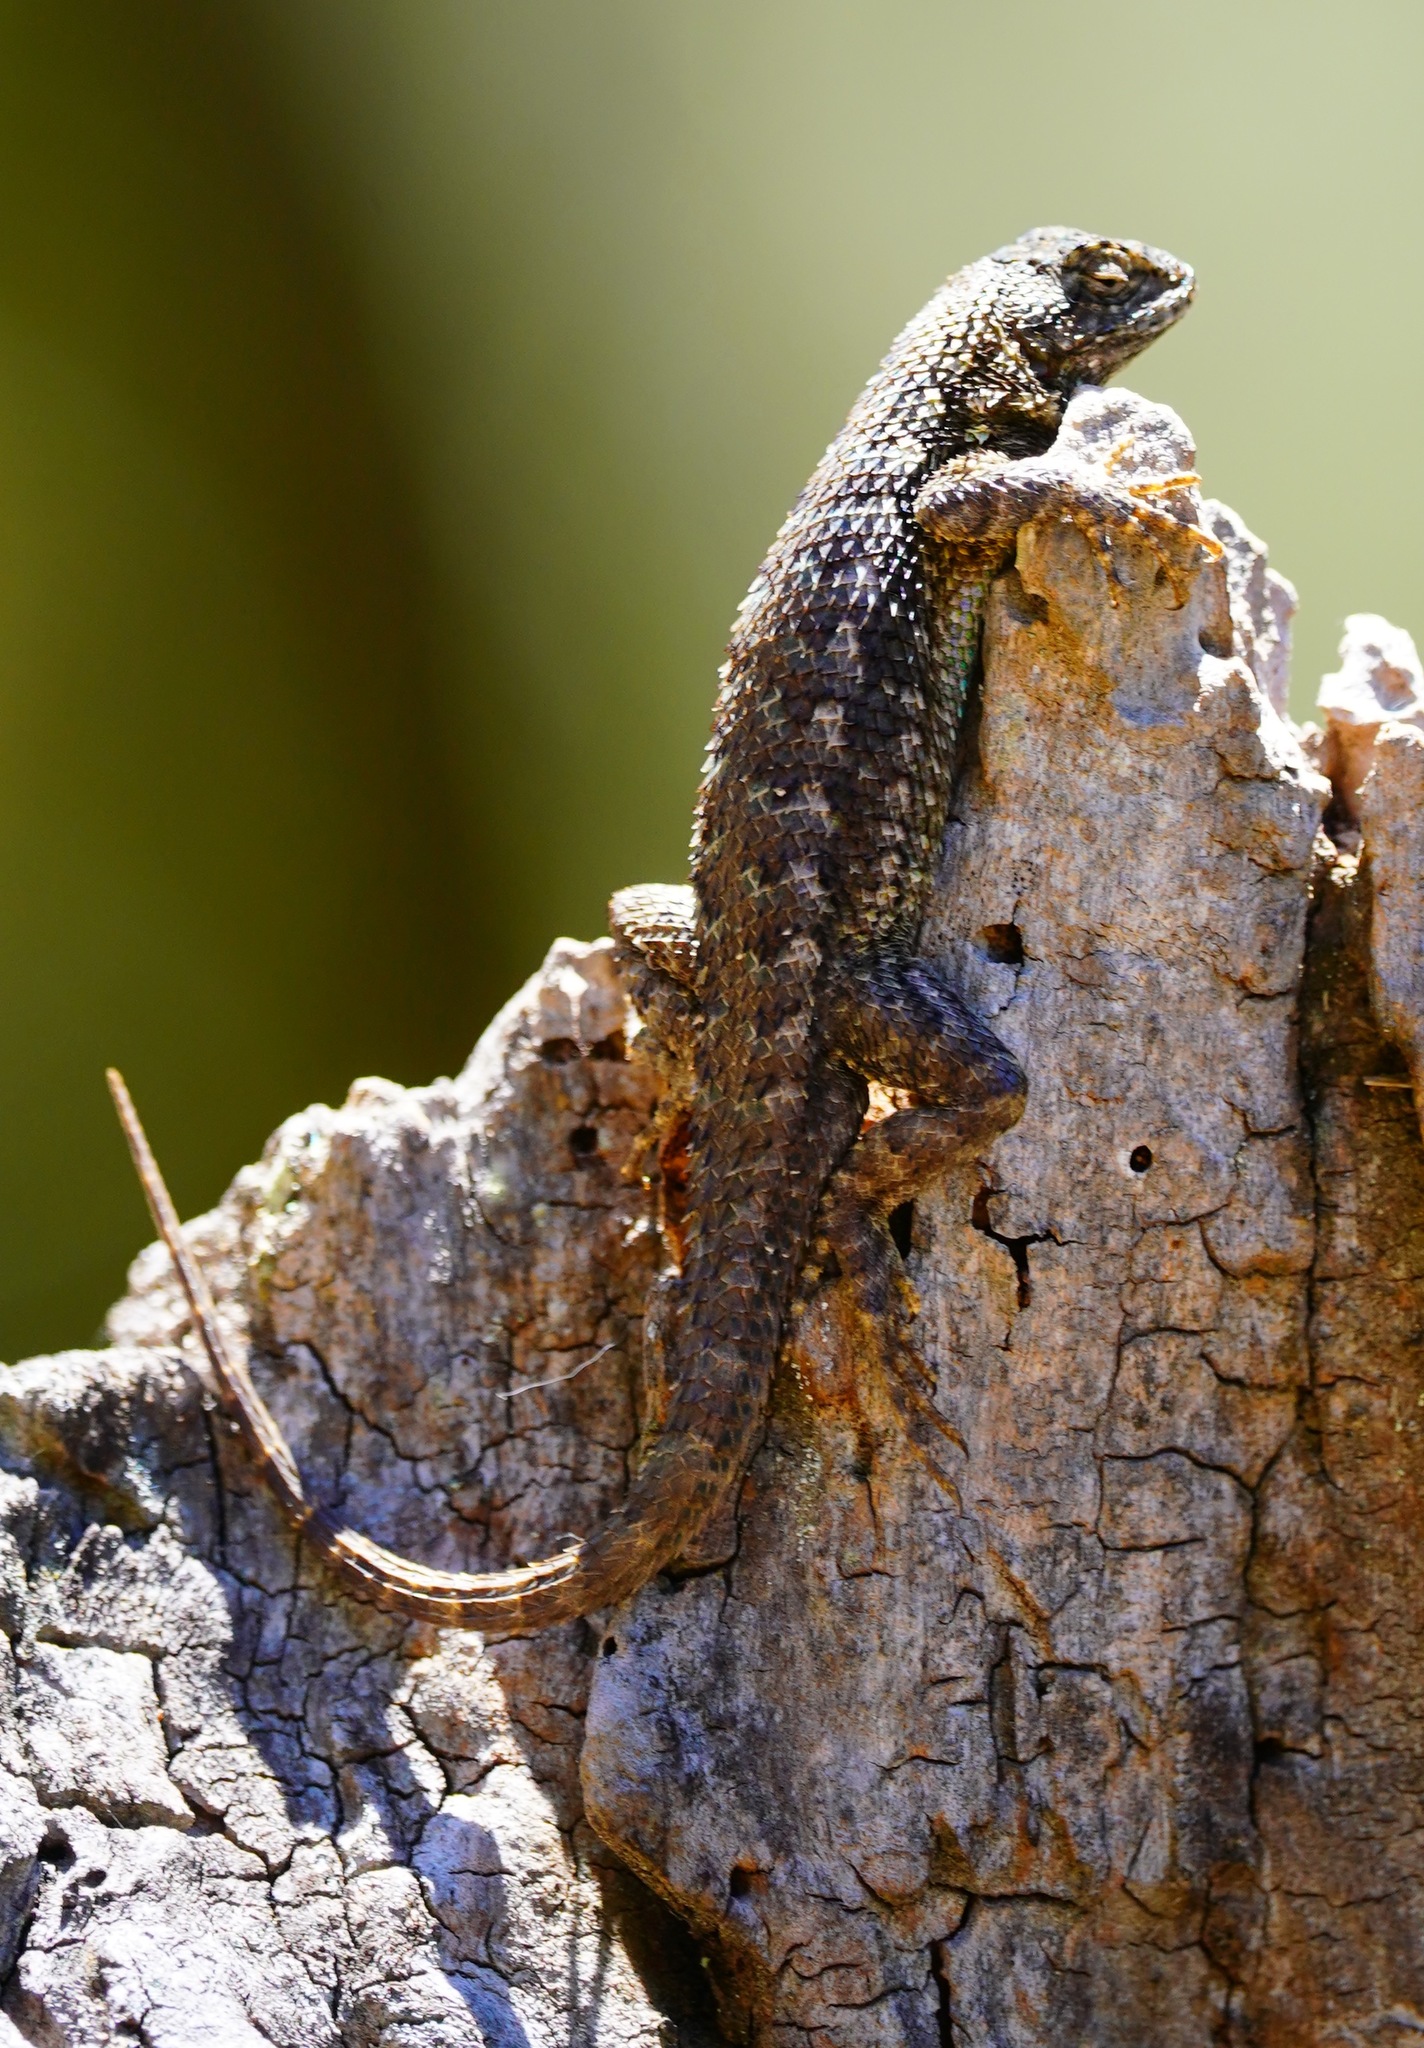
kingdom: Animalia
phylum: Chordata
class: Squamata
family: Phrynosomatidae
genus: Sceloporus
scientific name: Sceloporus occidentalis
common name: Western fence lizard
